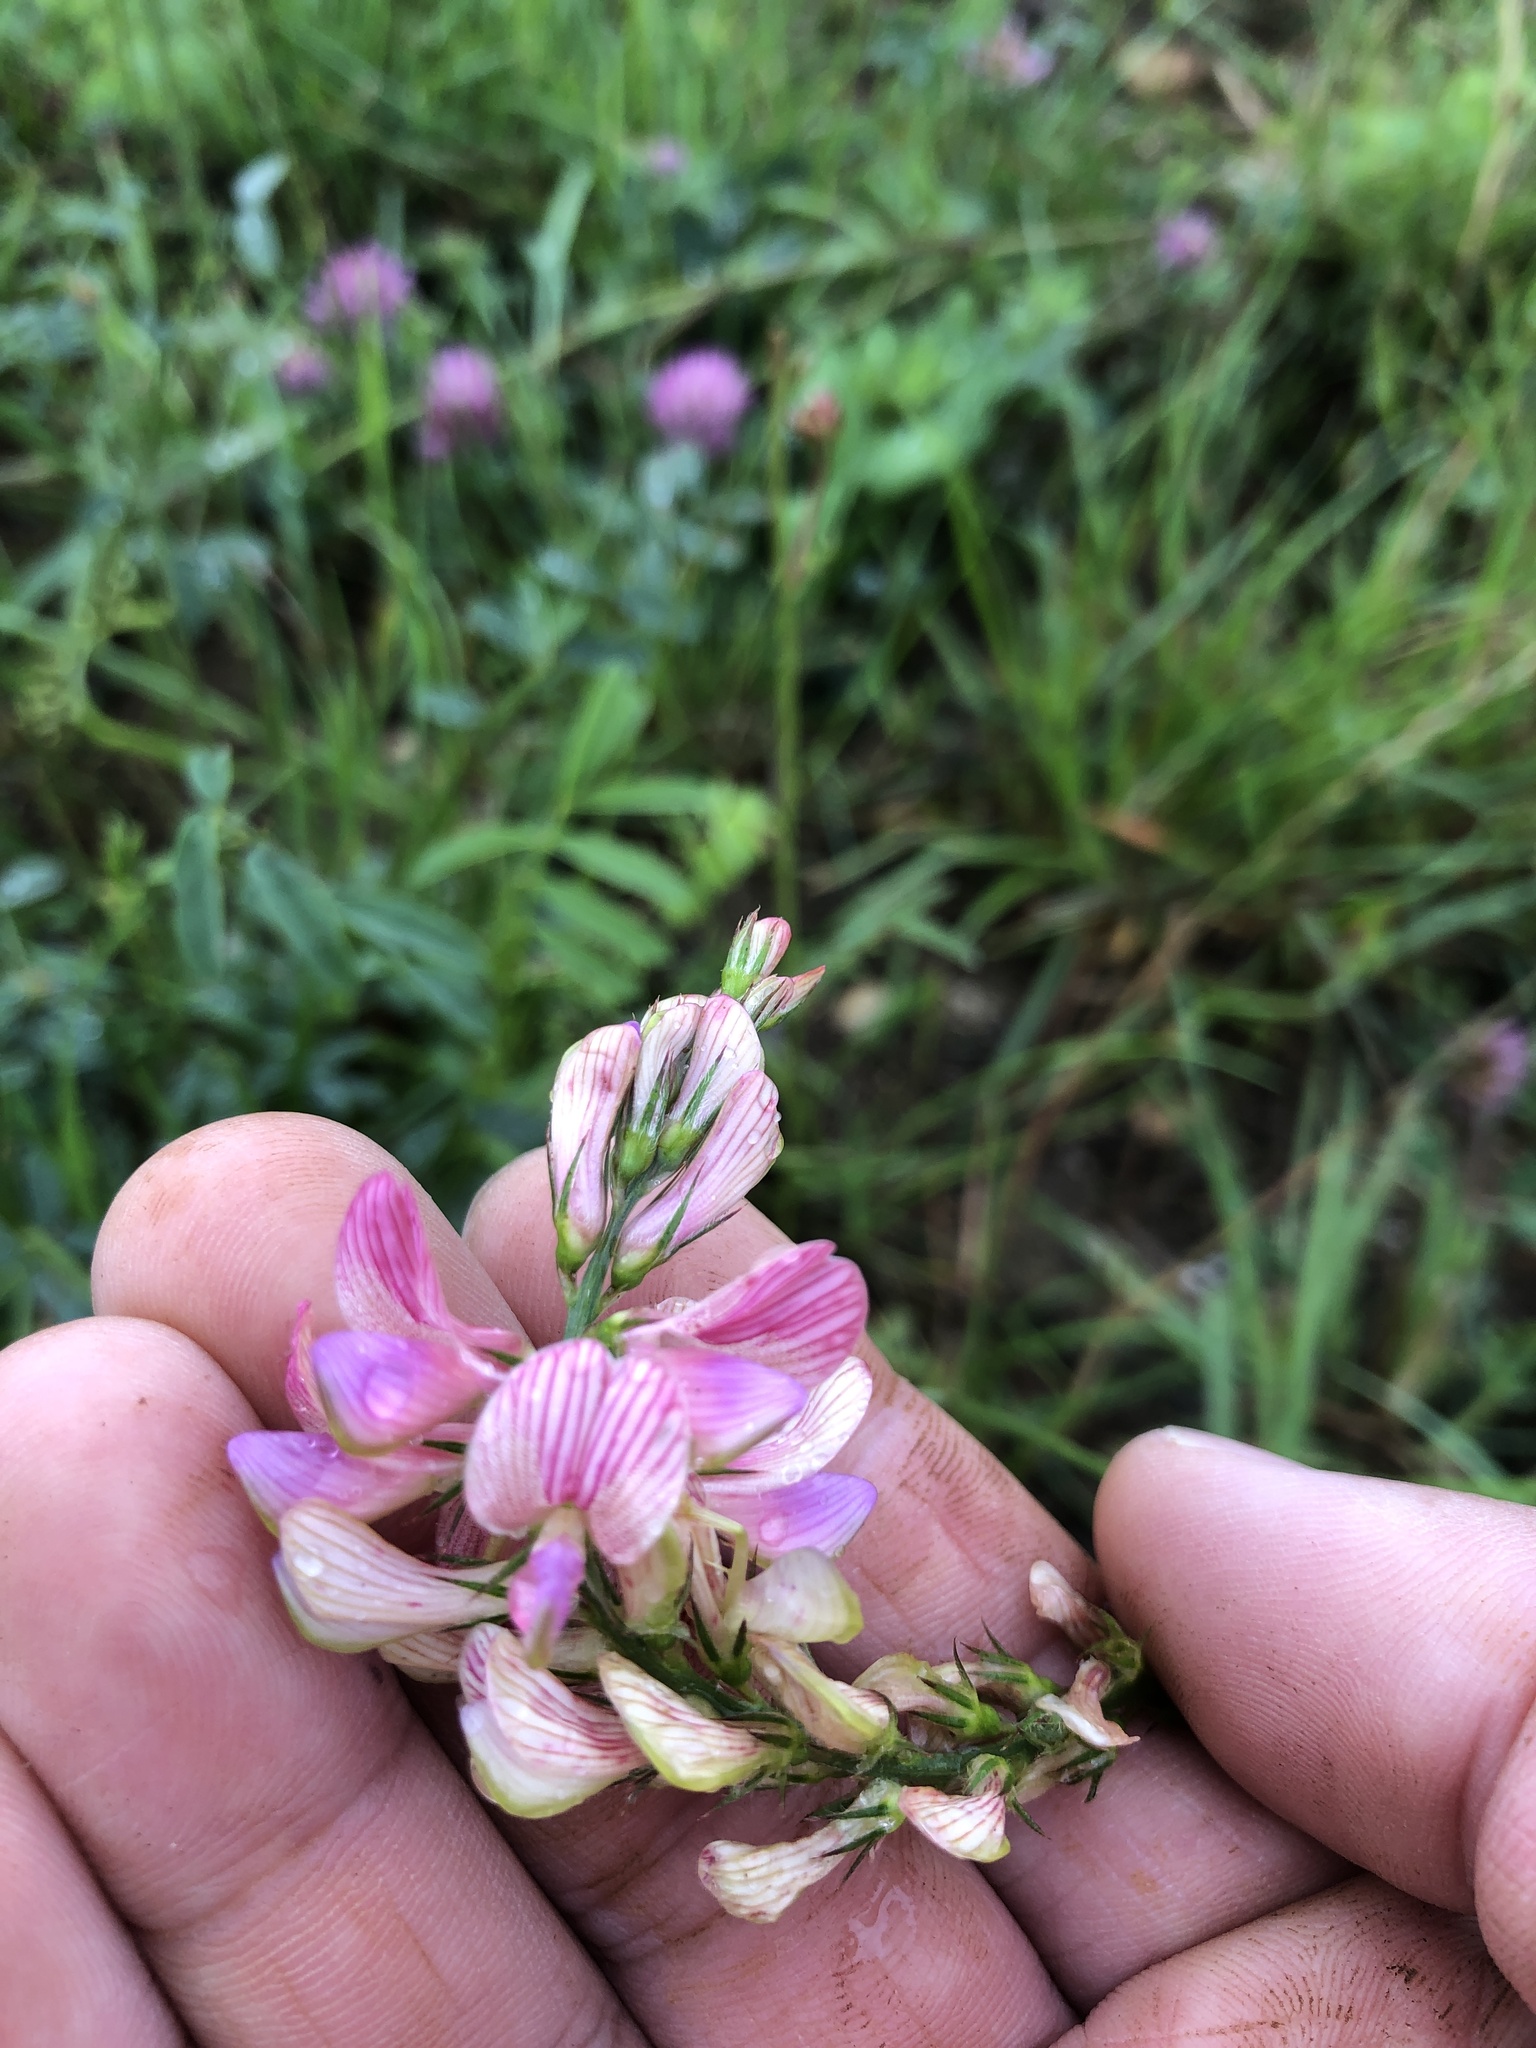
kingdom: Plantae
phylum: Tracheophyta
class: Magnoliopsida
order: Fabales
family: Fabaceae
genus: Onobrychis
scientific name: Onobrychis viciifolia
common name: Sainfoin
